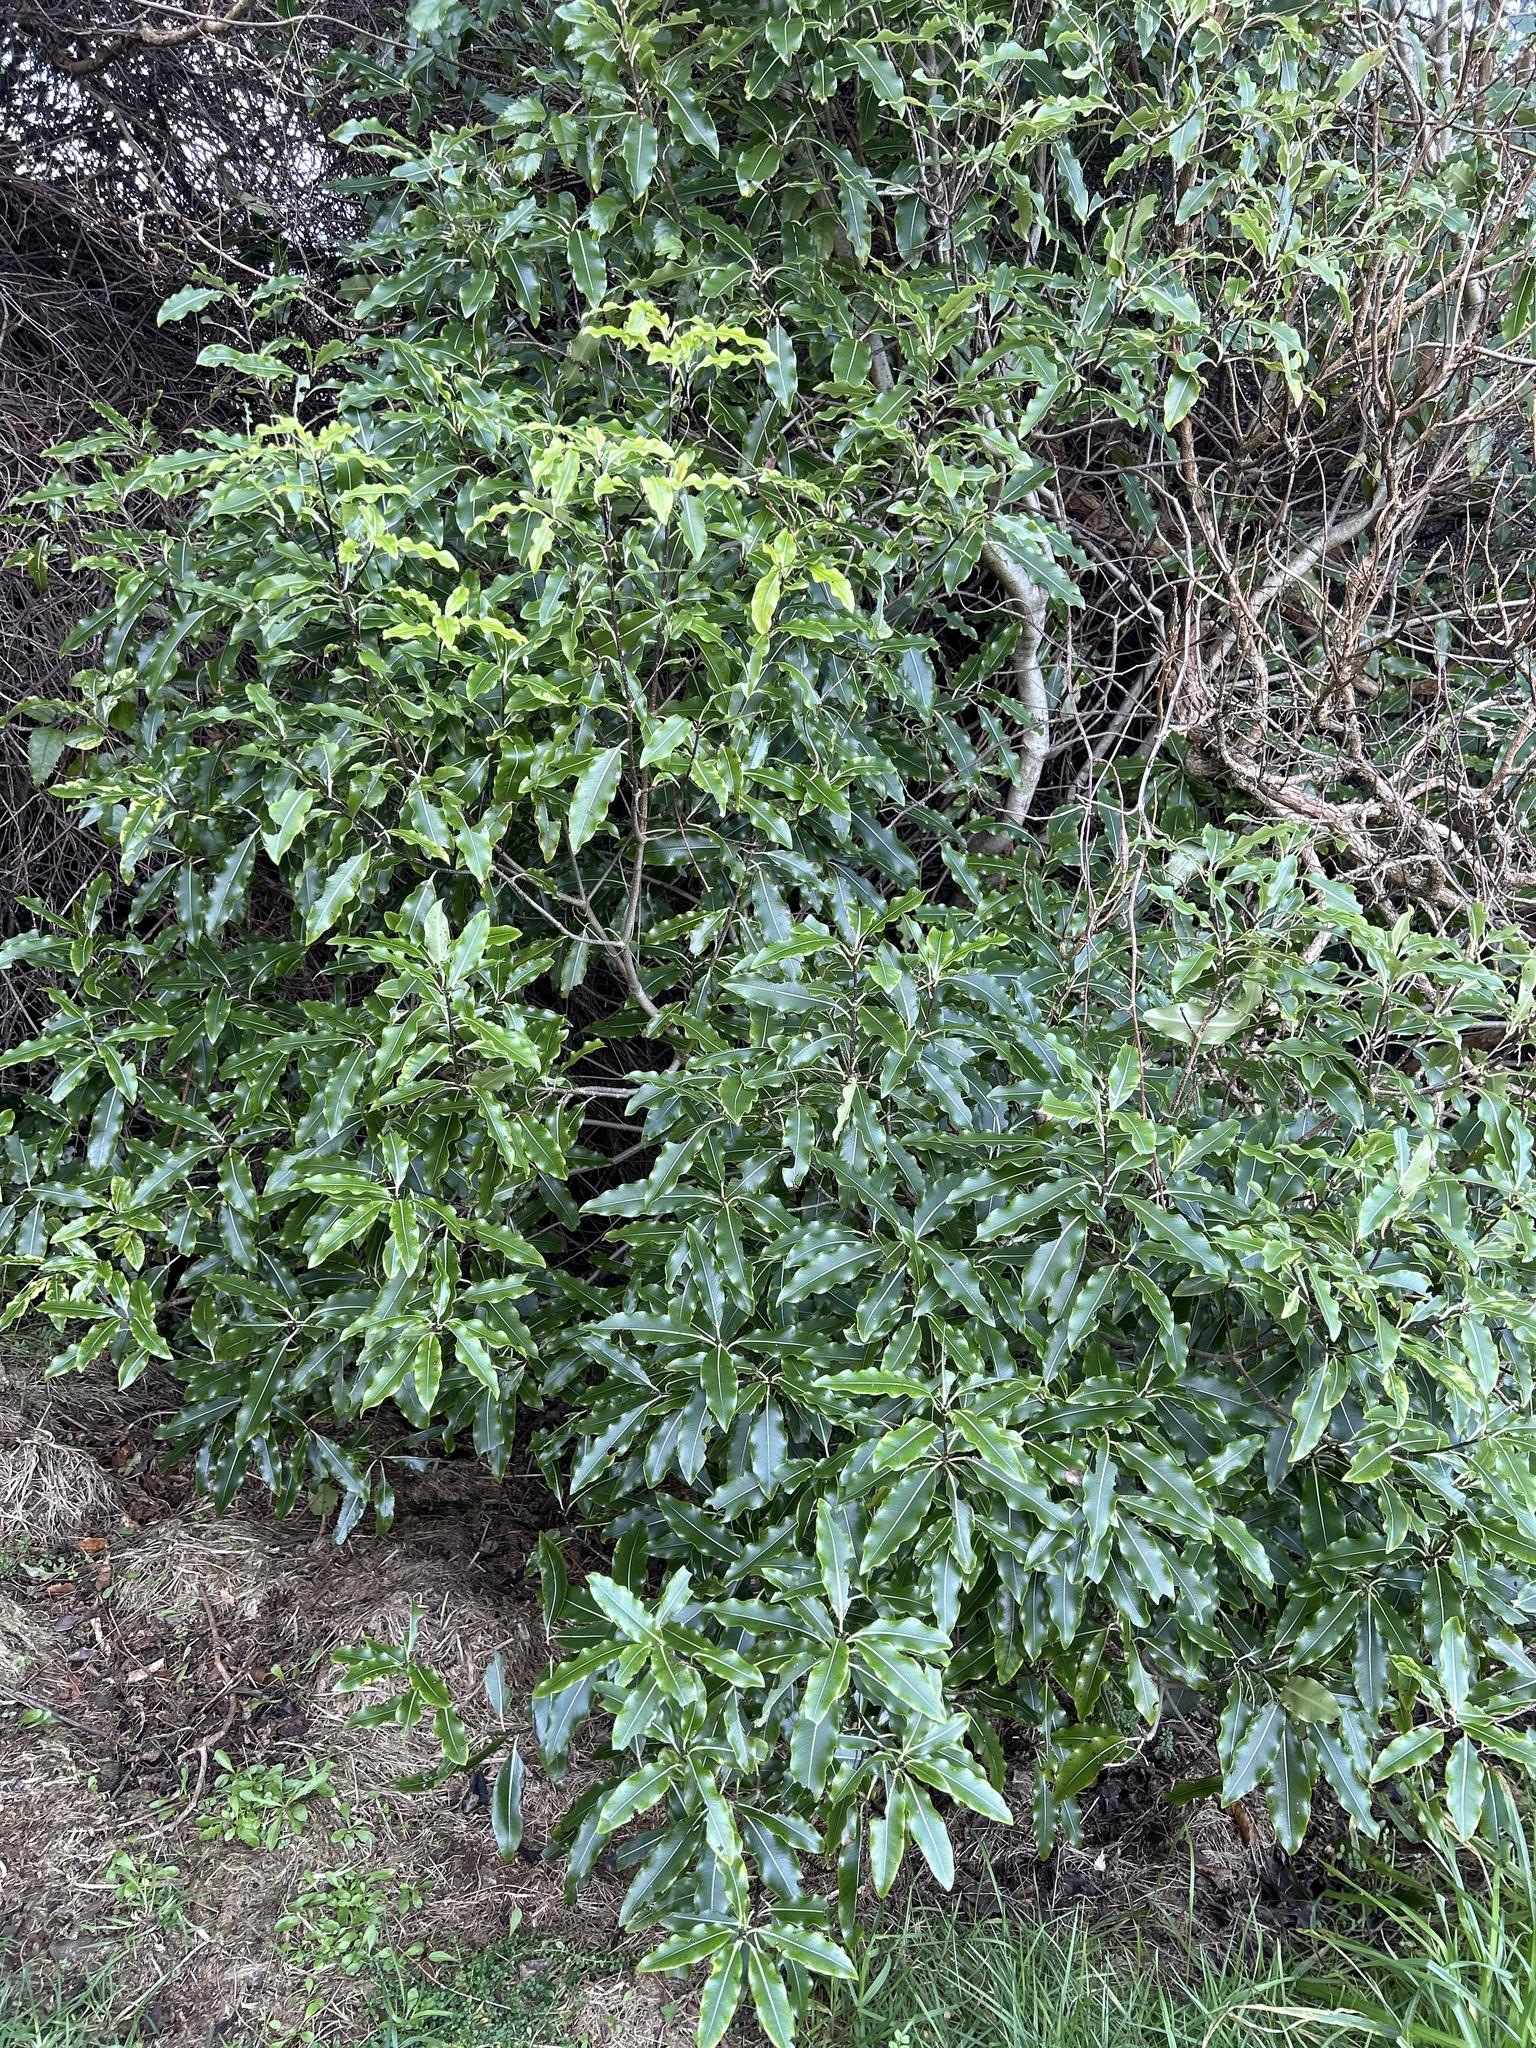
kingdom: Plantae
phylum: Tracheophyta
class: Magnoliopsida
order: Apiales
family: Pittosporaceae
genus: Pittosporum
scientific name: Pittosporum eugenioides
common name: Lemonwood
